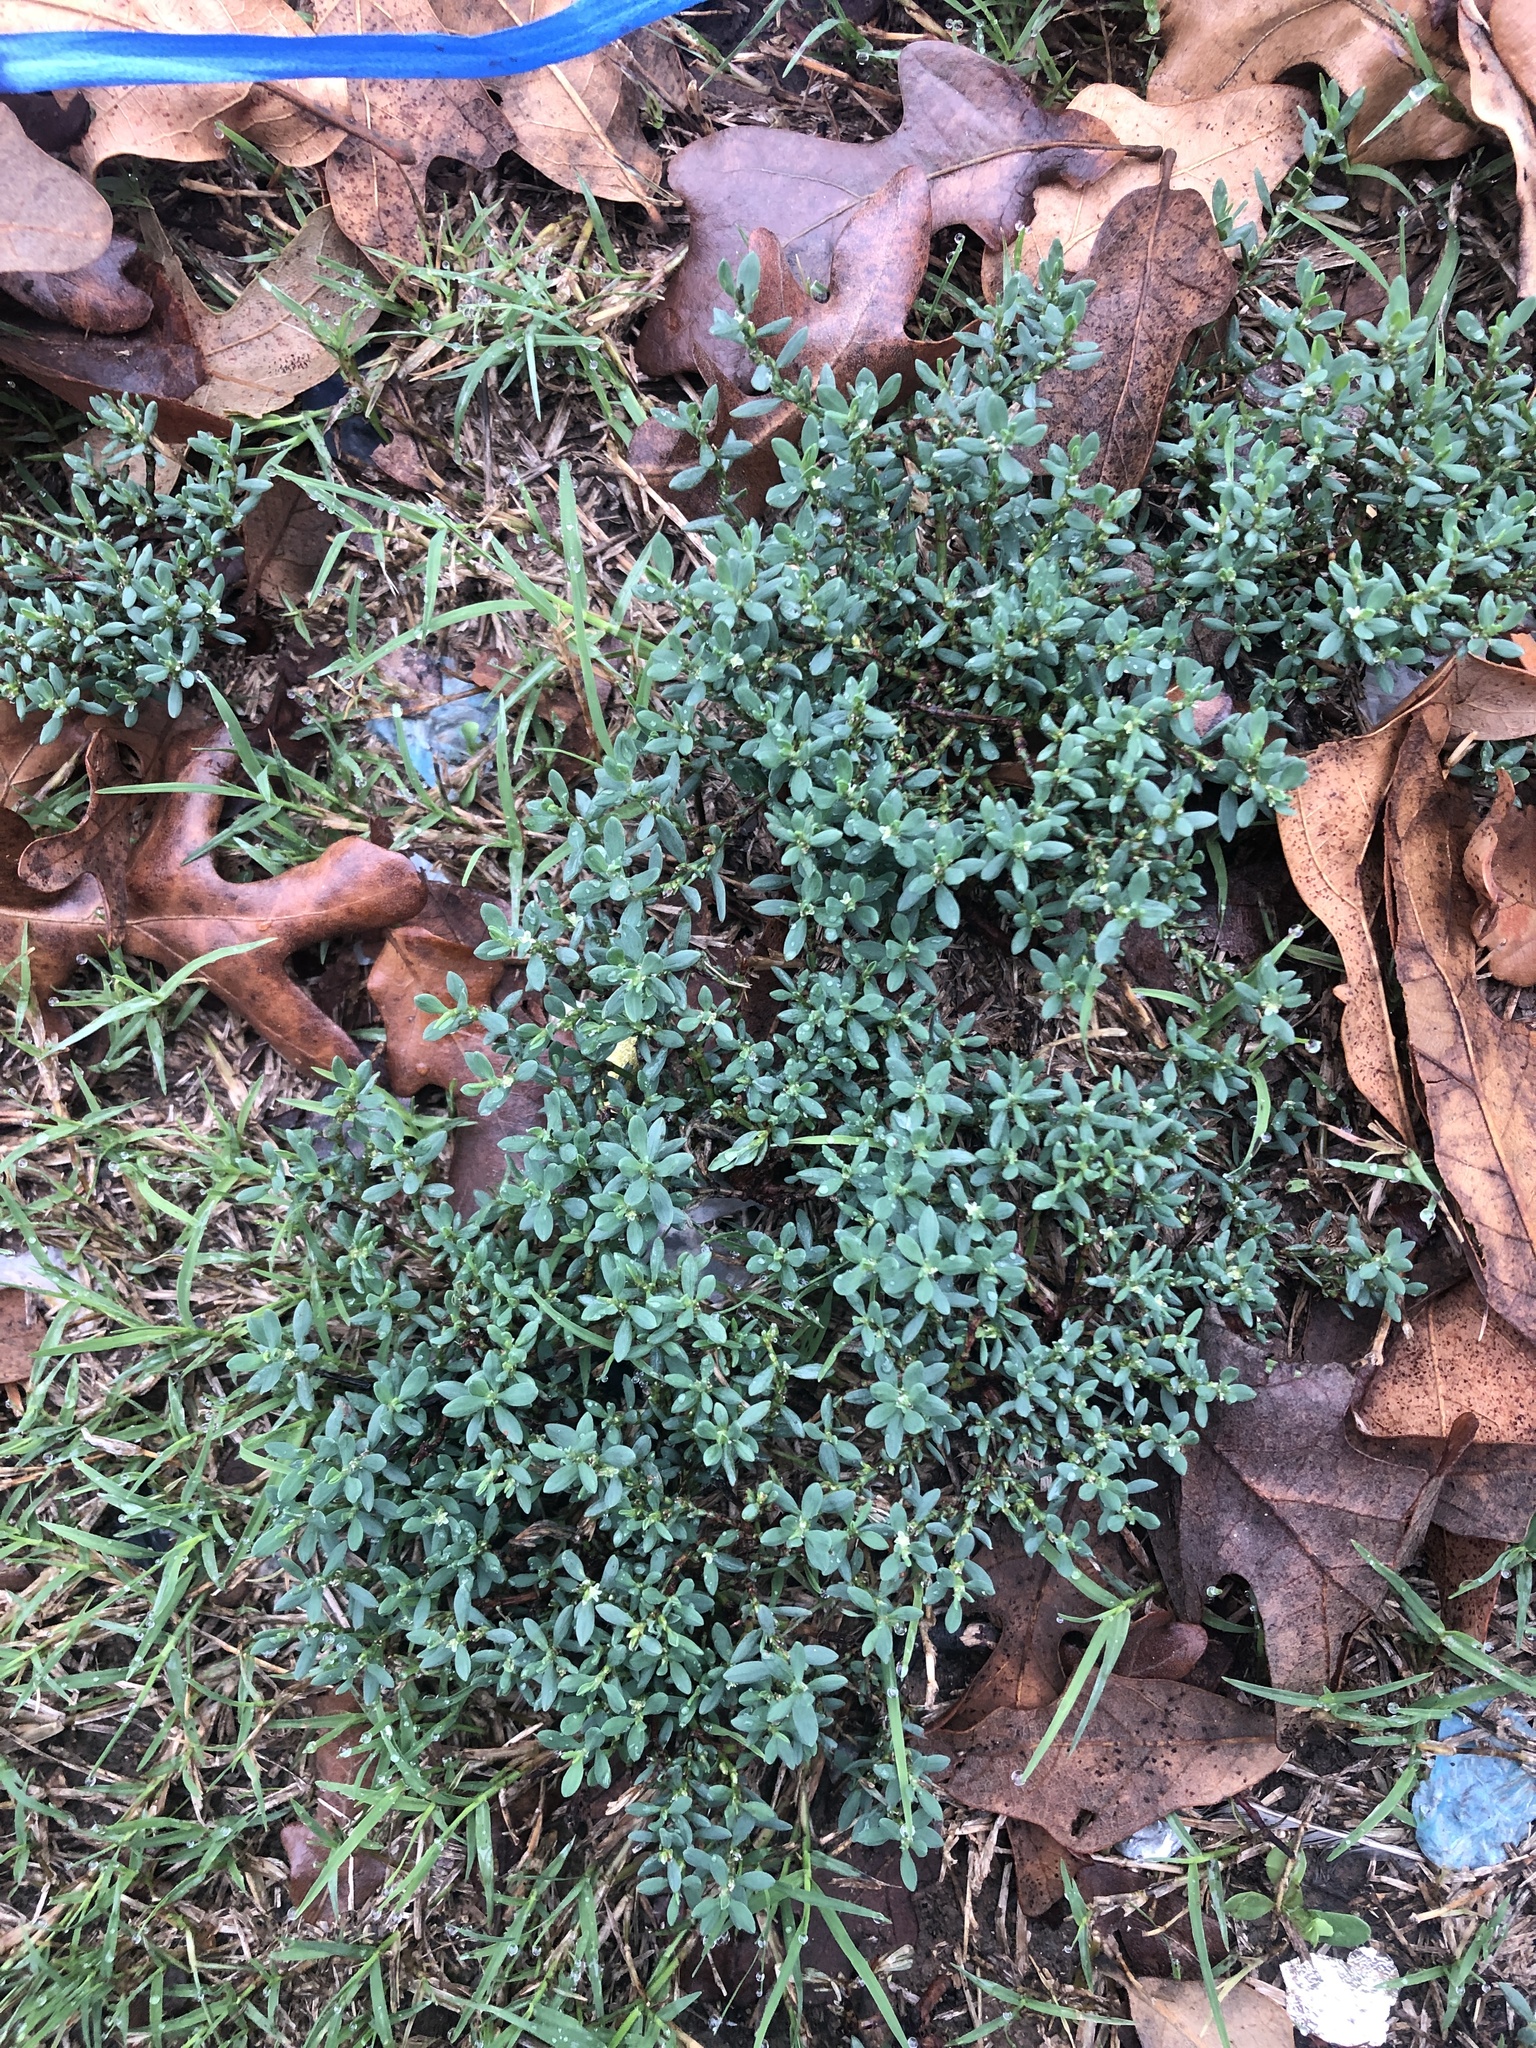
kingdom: Plantae
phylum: Tracheophyta
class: Magnoliopsida
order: Caryophyllales
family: Polygonaceae
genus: Polygonum
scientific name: Polygonum aviculare
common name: Prostrate knotweed
